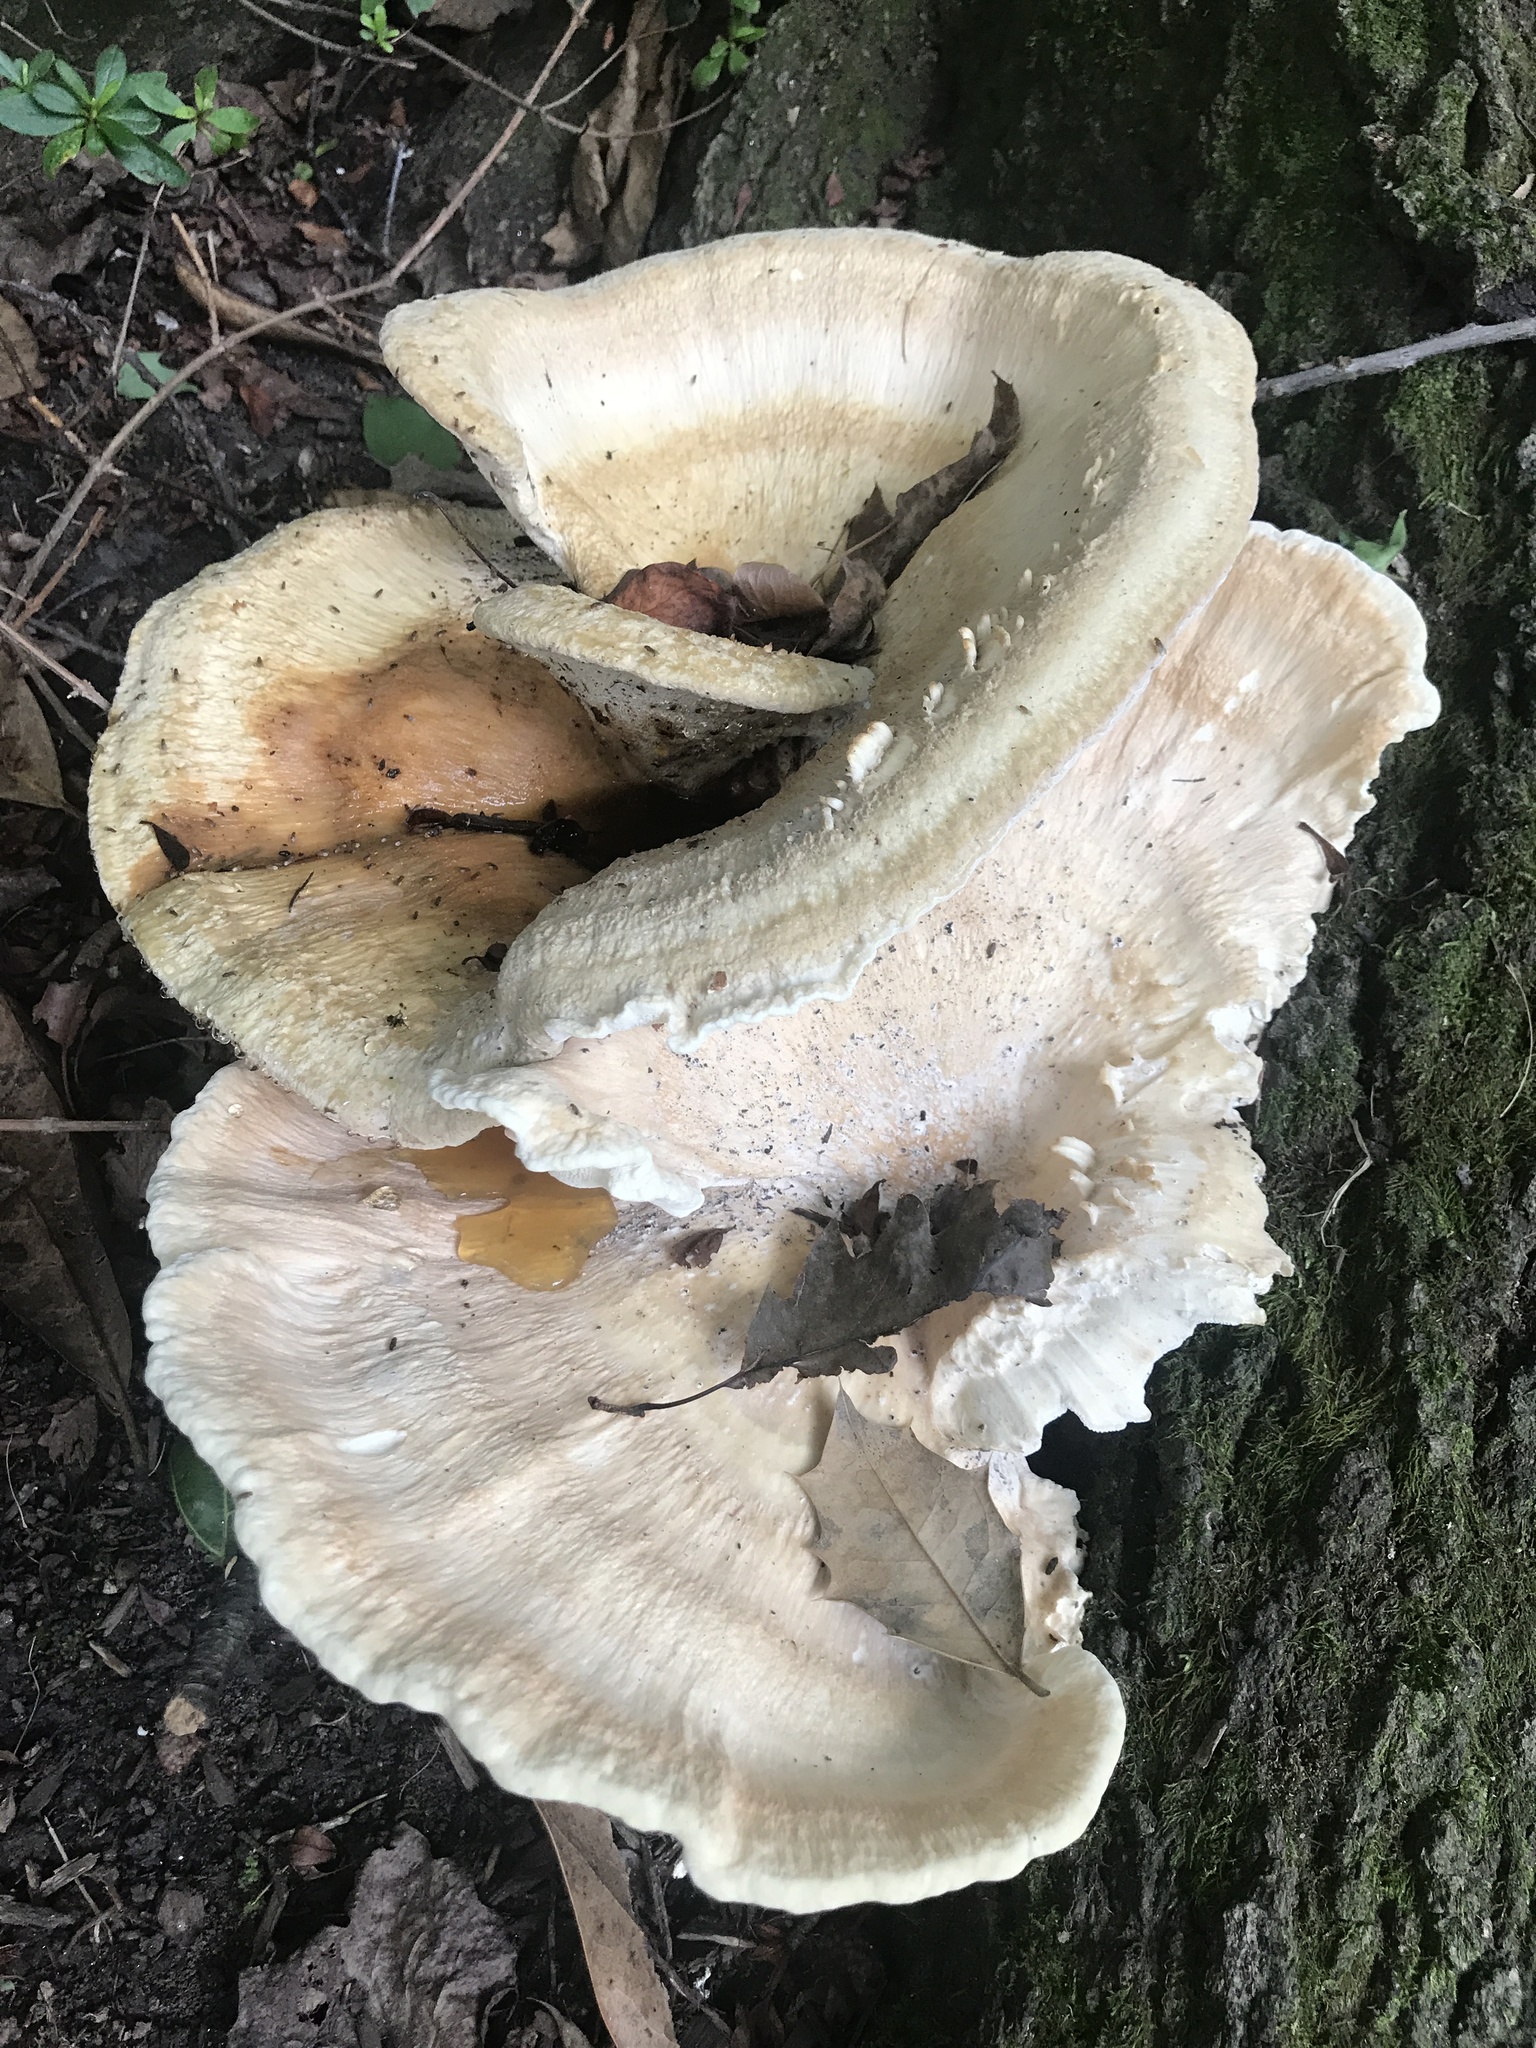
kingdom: Fungi
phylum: Basidiomycota
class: Agaricomycetes
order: Russulales
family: Bondarzewiaceae
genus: Bondarzewia
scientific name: Bondarzewia berkeleyi
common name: Berkeley's polypore
